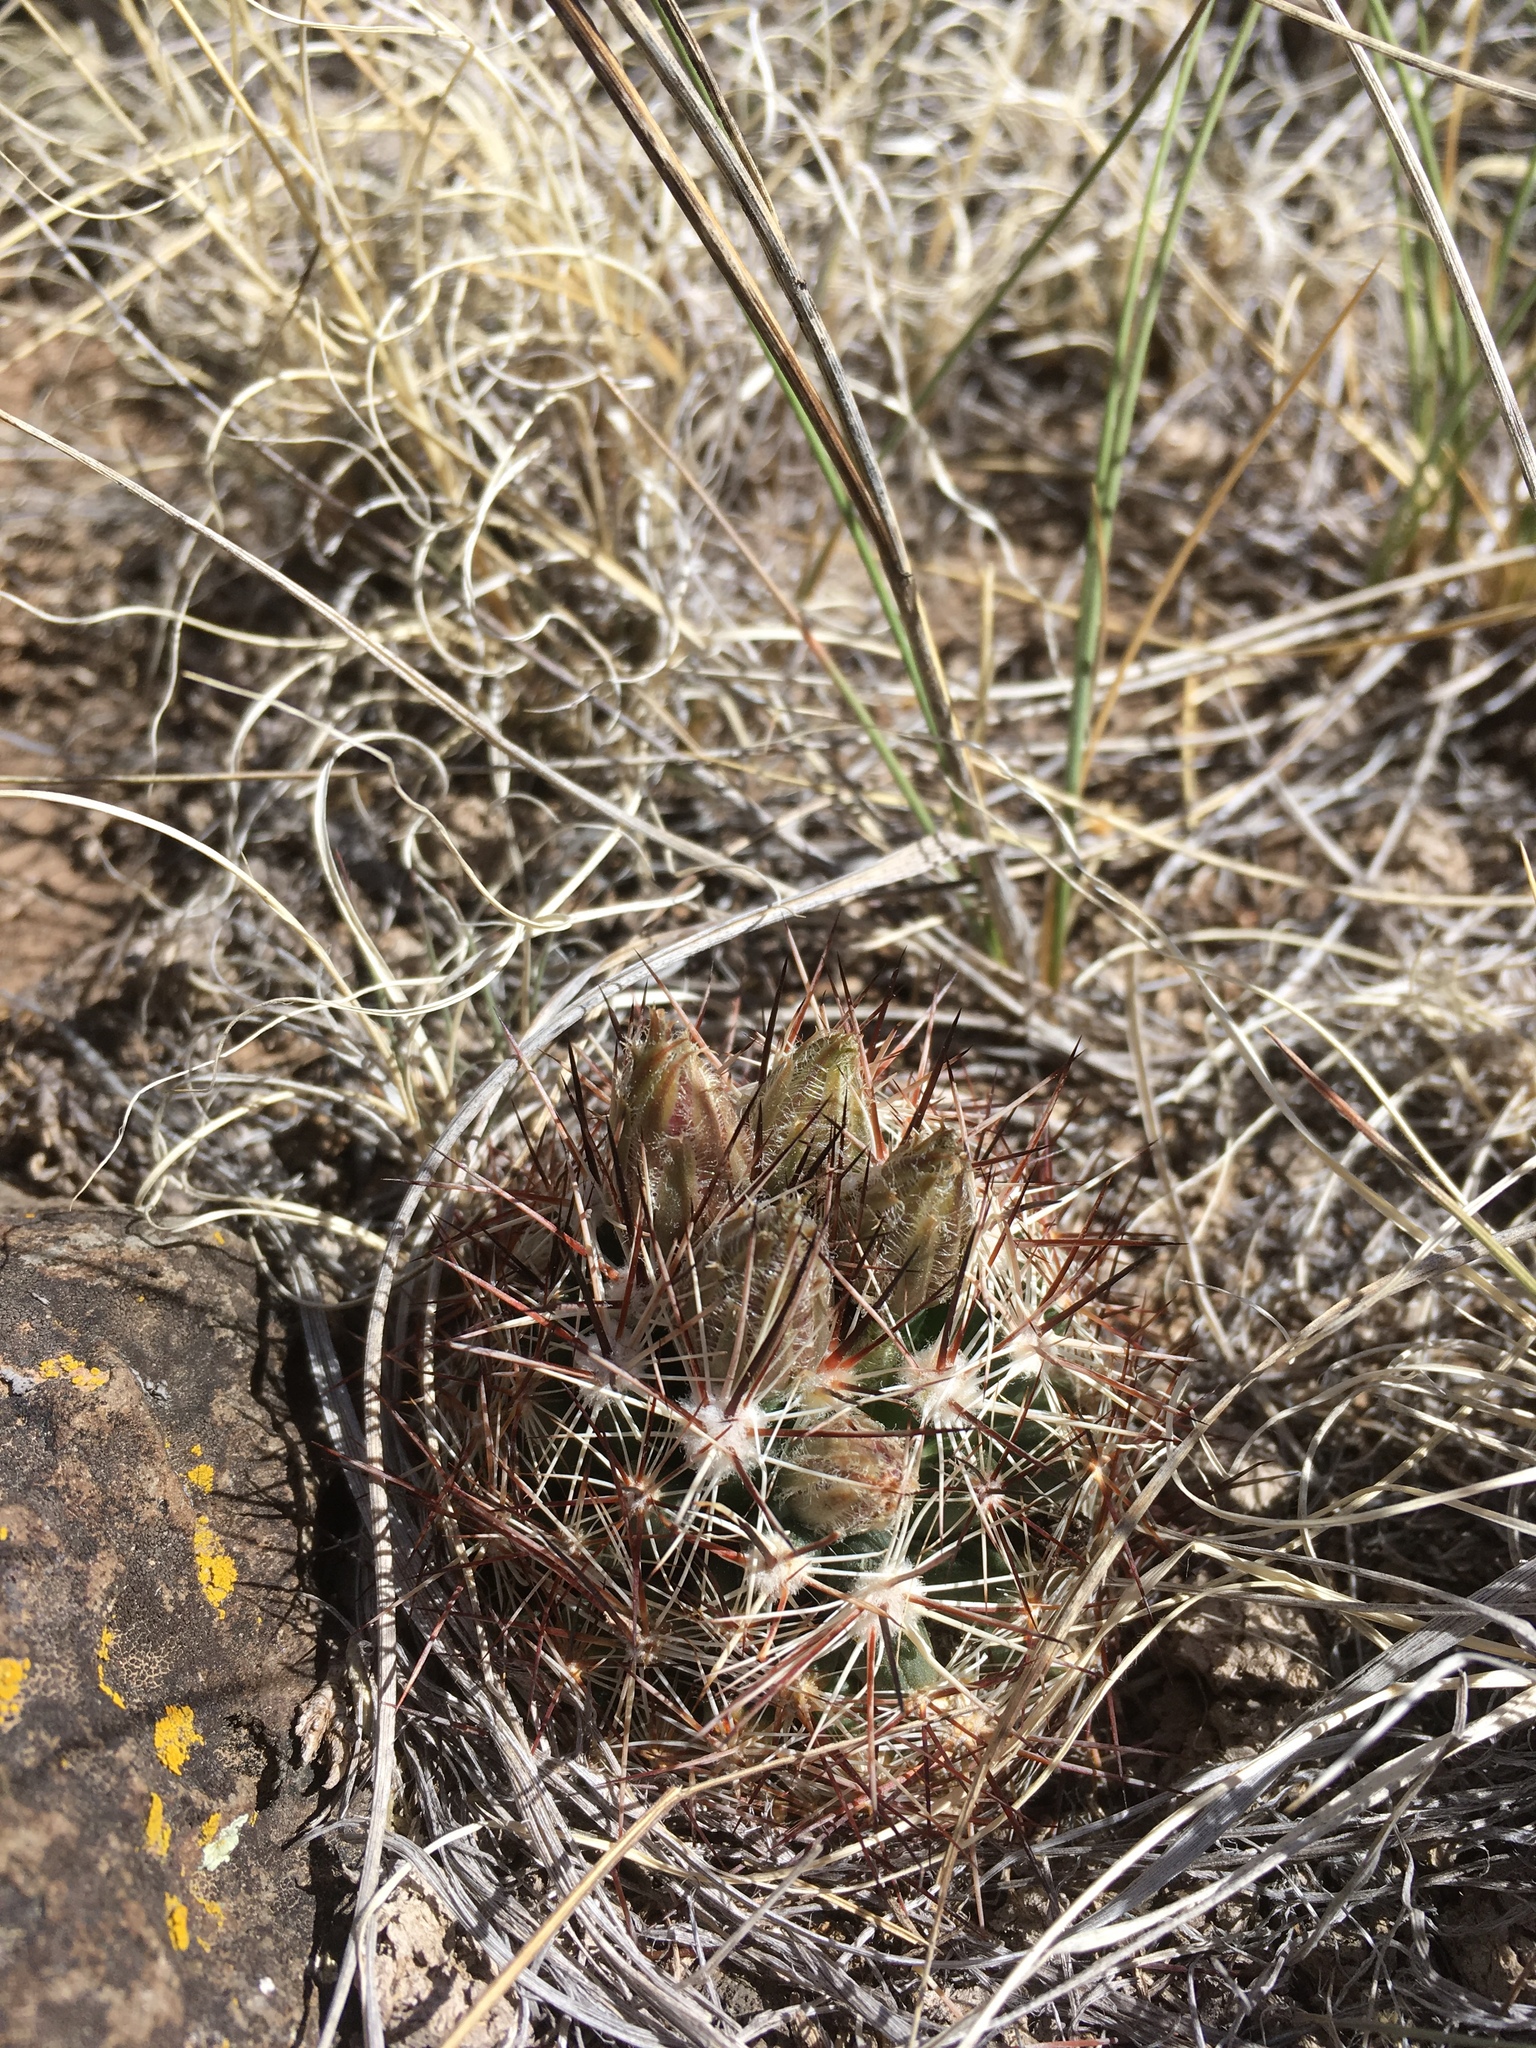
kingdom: Plantae
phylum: Tracheophyta
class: Magnoliopsida
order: Caryophyllales
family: Cactaceae
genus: Pelecyphora
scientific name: Pelecyphora vivipara
